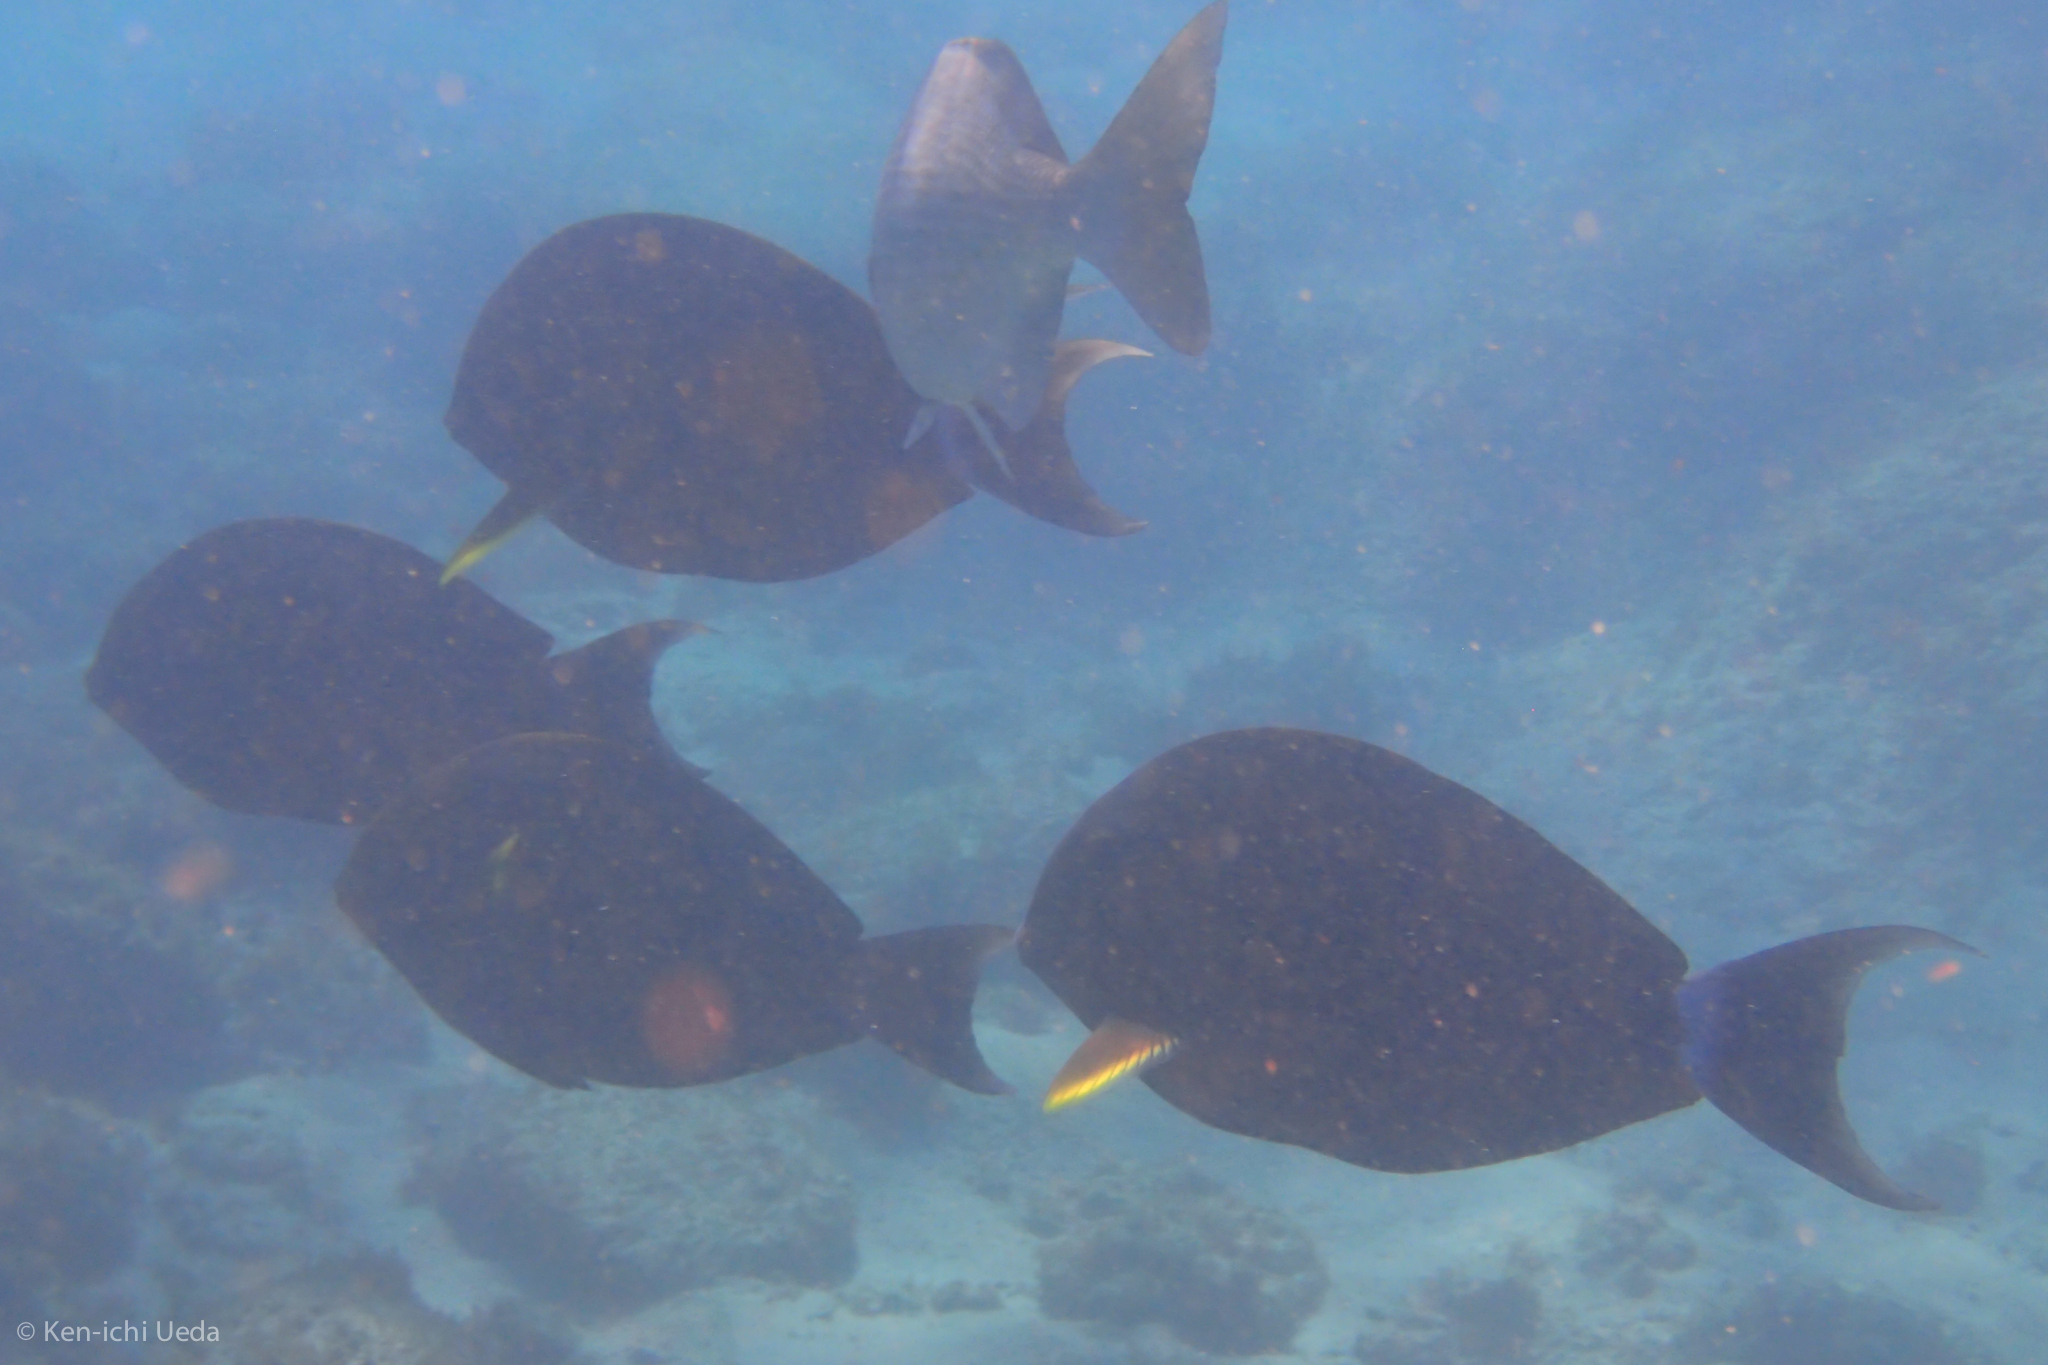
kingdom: Animalia
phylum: Chordata
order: Perciformes
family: Acanthuridae
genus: Acanthurus
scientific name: Acanthurus xanthopterus
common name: Cuvier's surgeonfish
